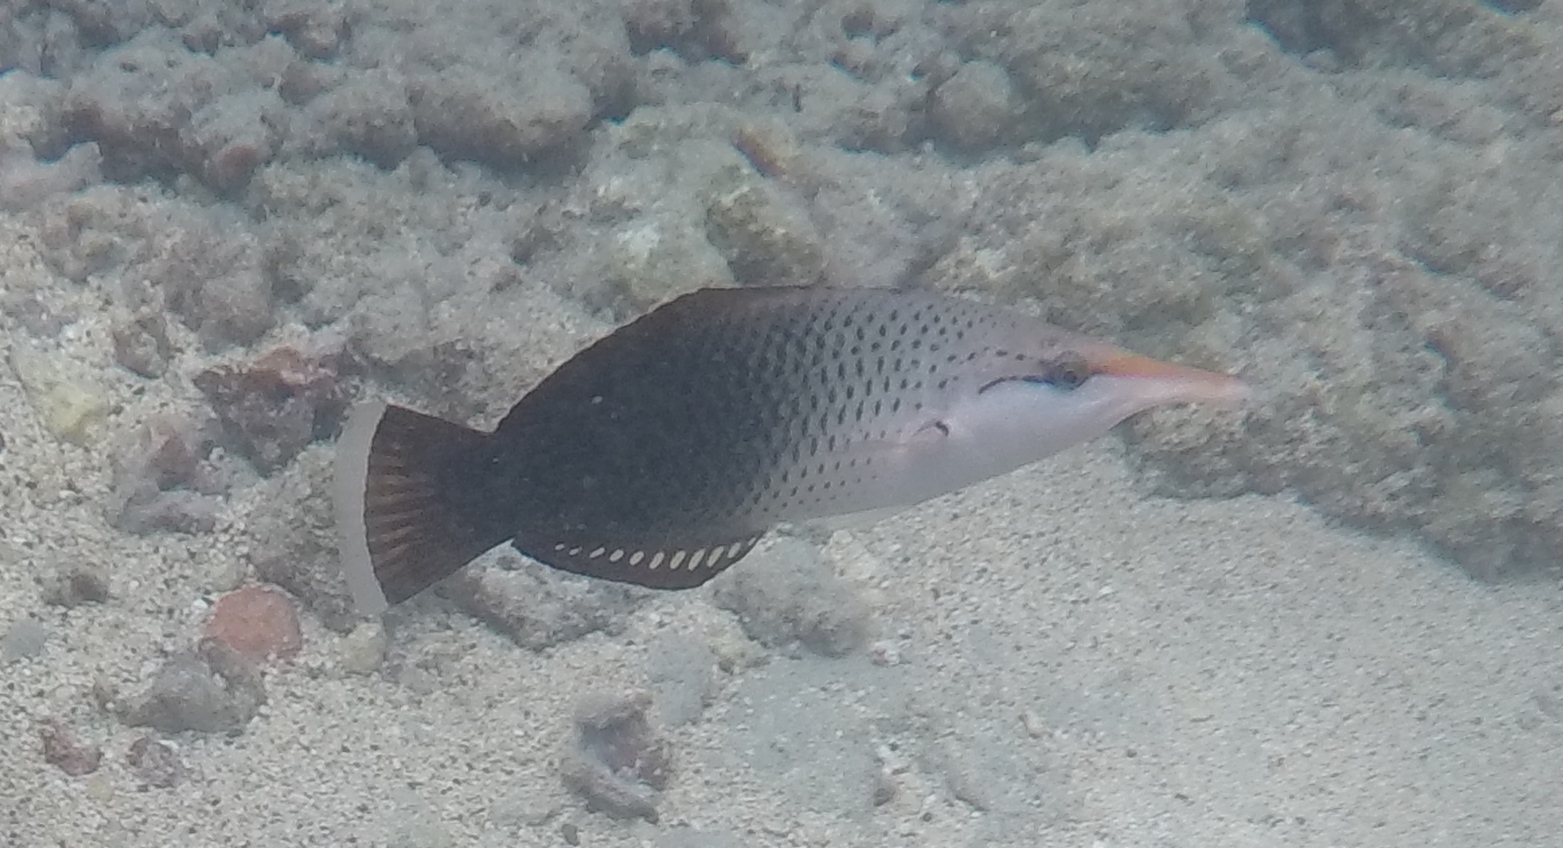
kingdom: Animalia
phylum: Chordata
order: Perciformes
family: Labridae
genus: Gomphosus
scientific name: Gomphosus varius
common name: Bird wrasse
